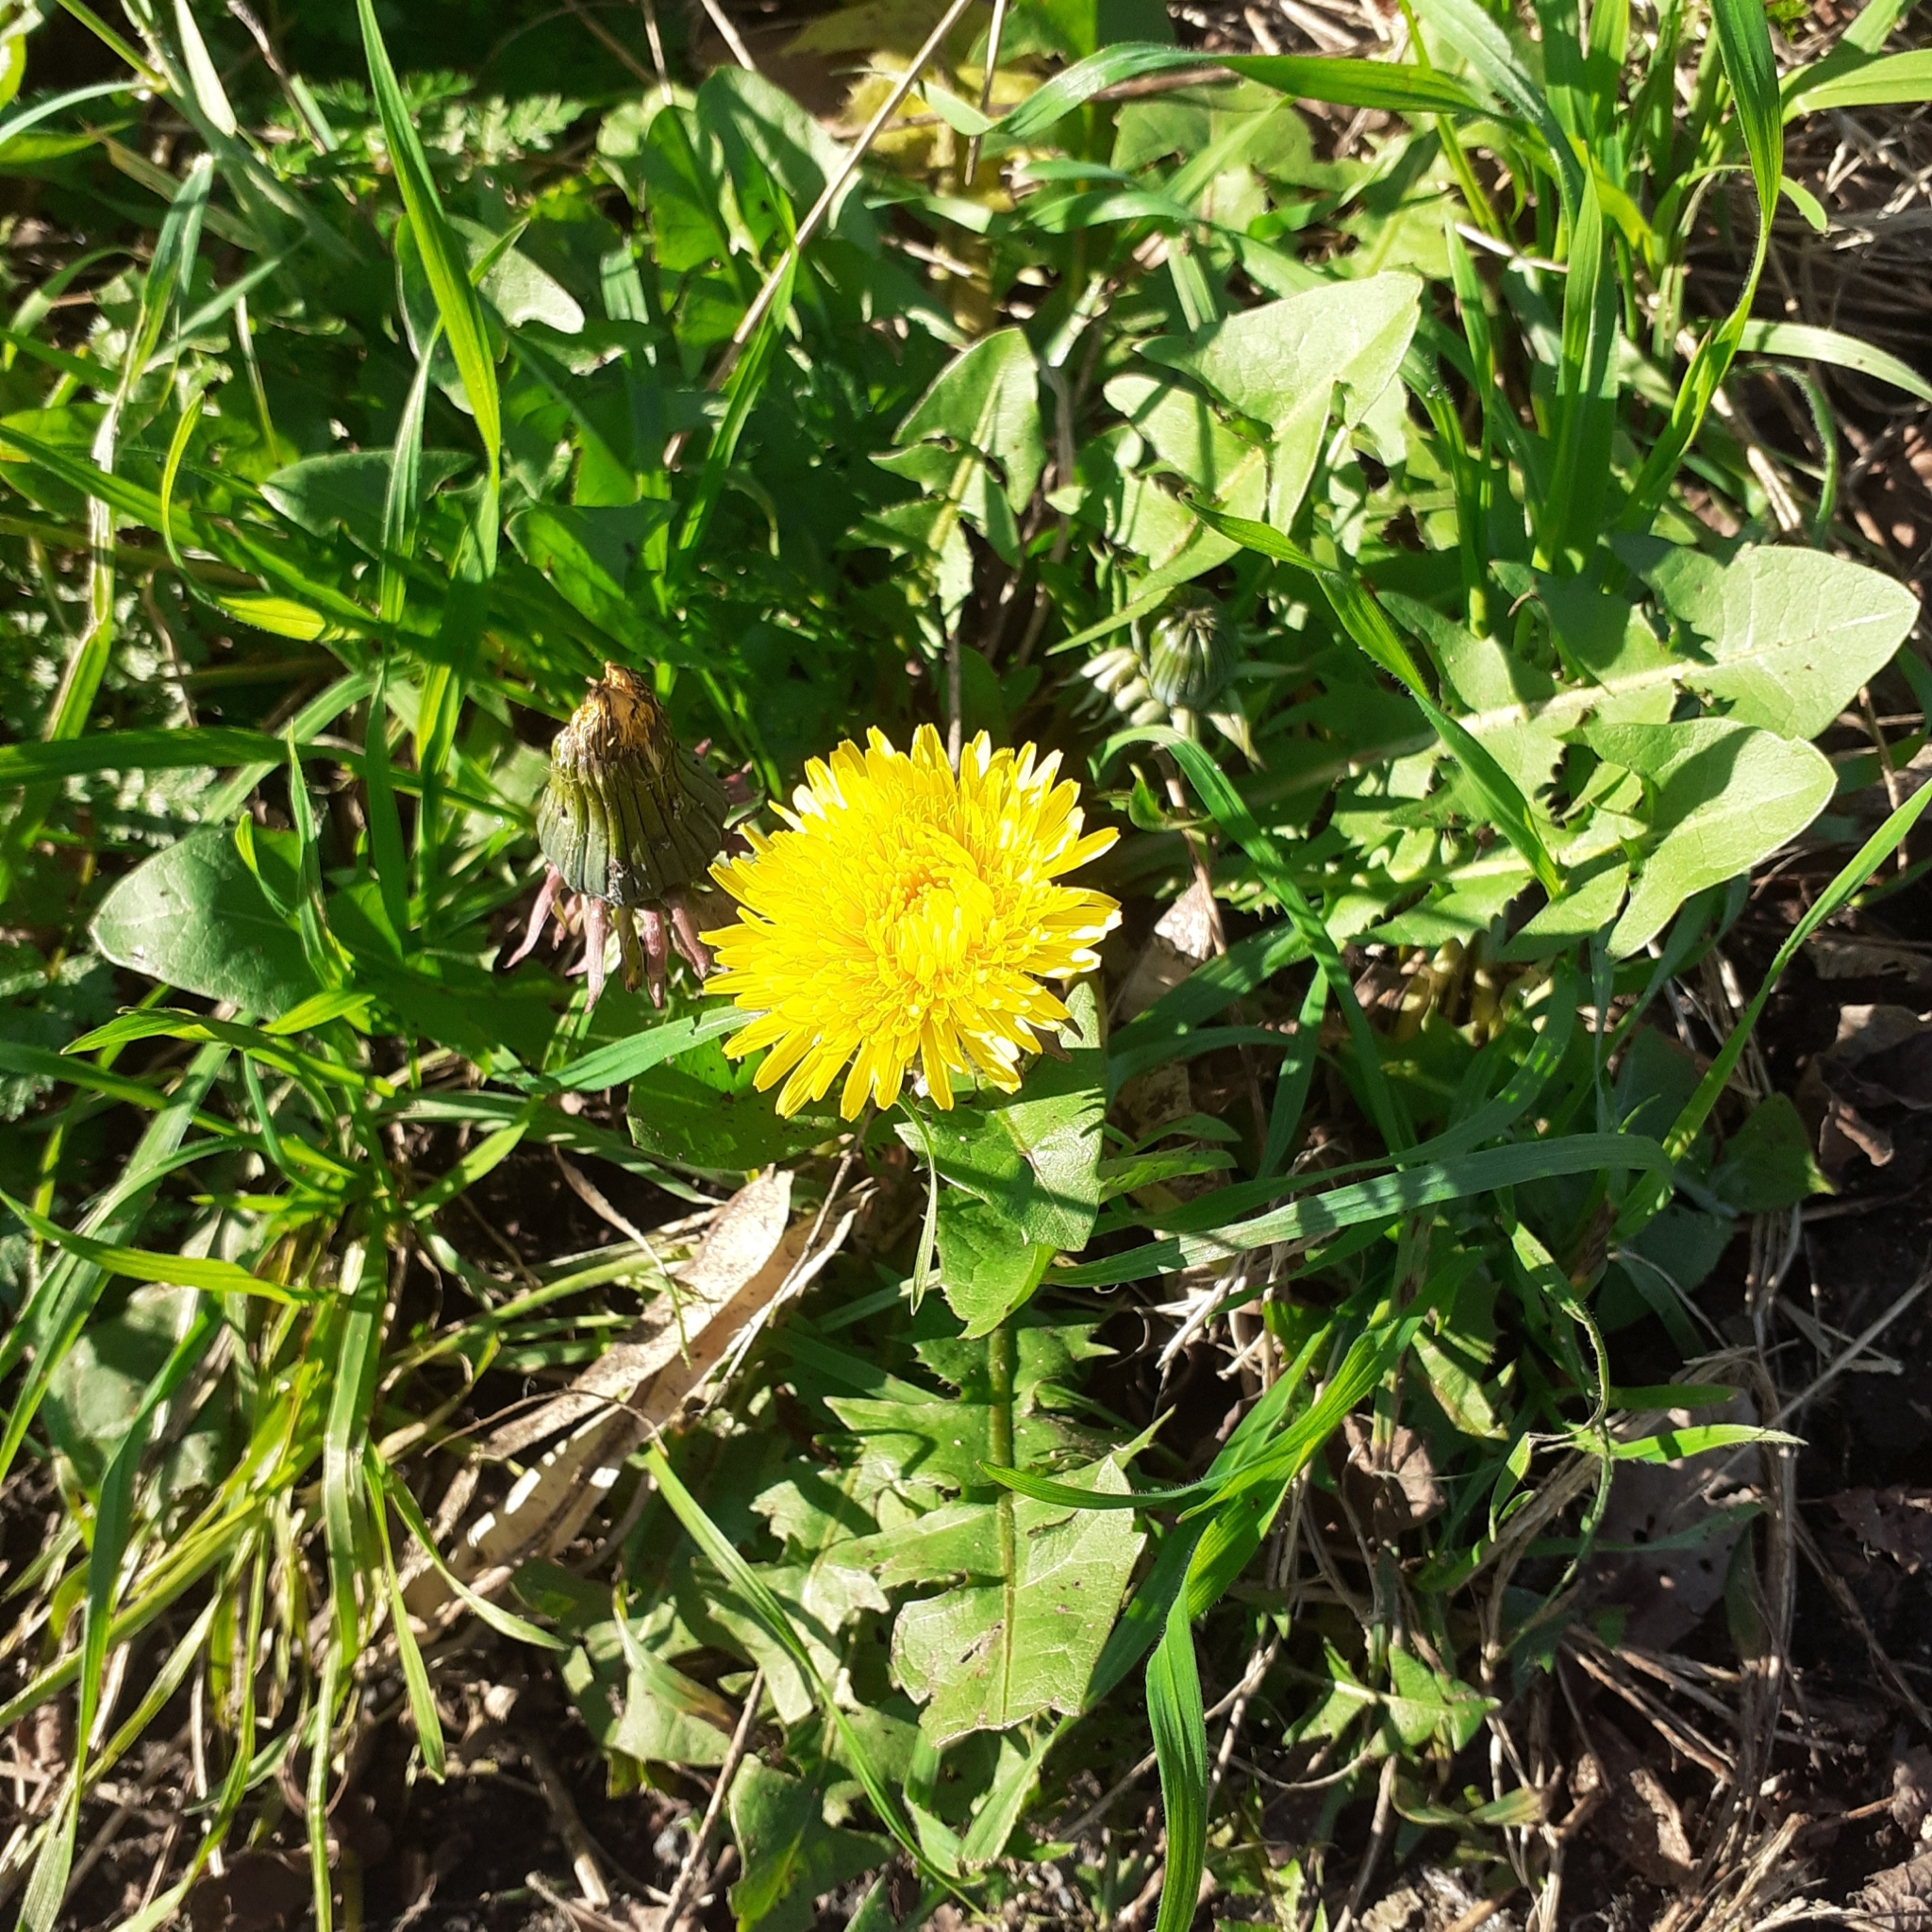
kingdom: Plantae
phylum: Tracheophyta
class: Magnoliopsida
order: Asterales
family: Asteraceae
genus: Taraxacum
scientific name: Taraxacum officinale
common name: Common dandelion
